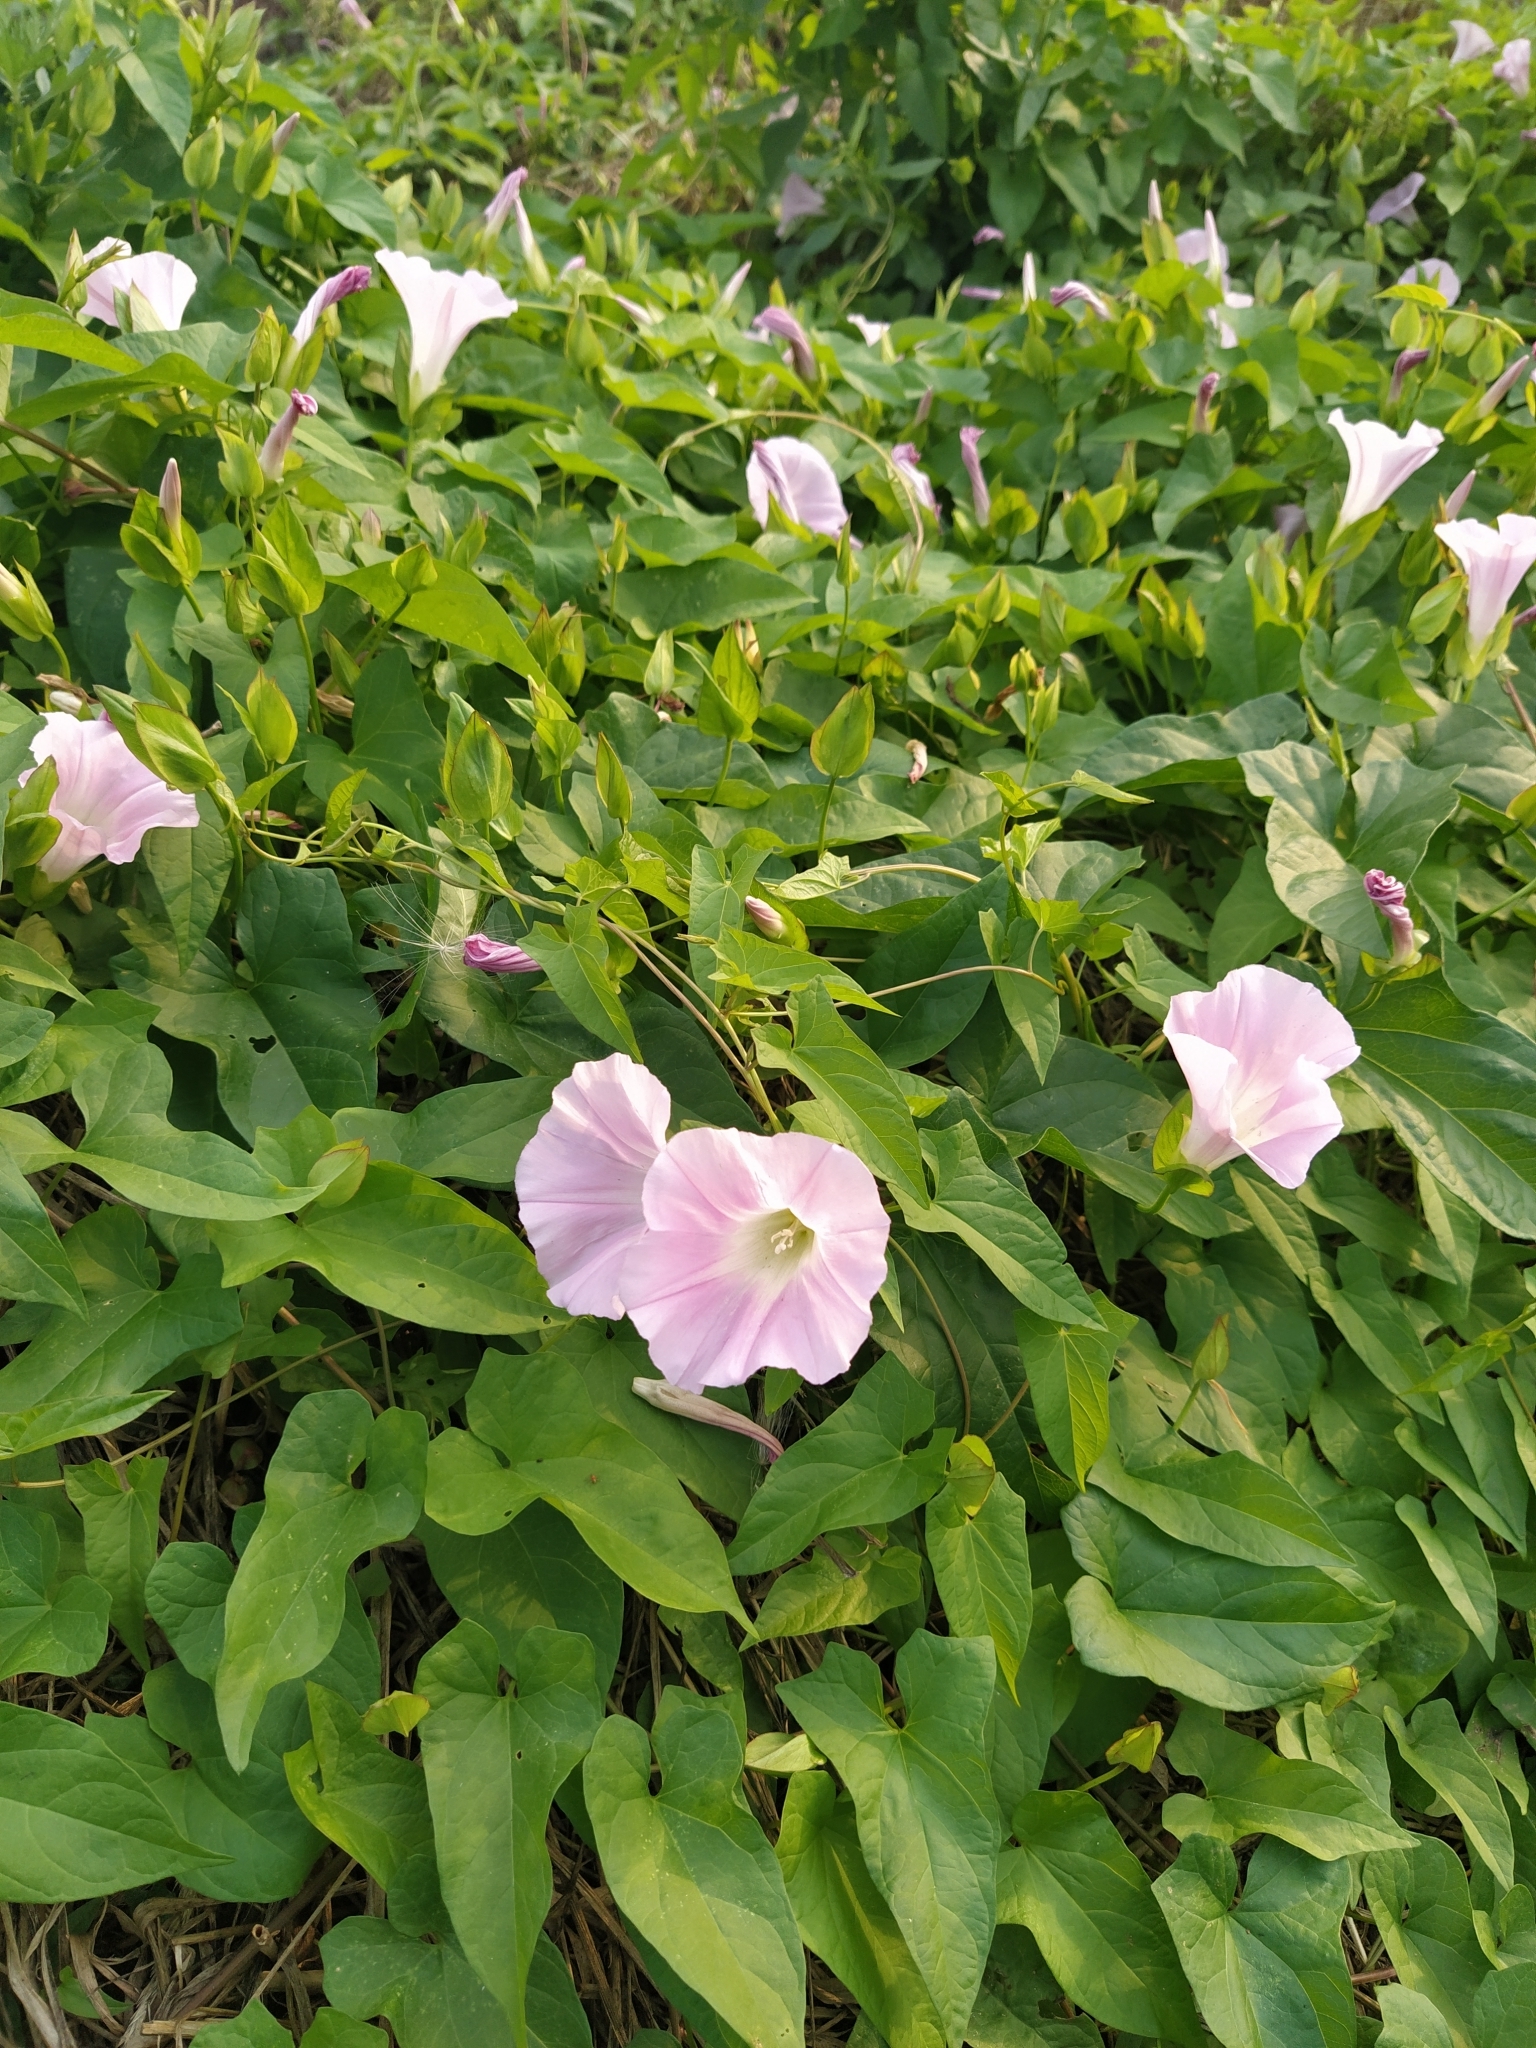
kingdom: Plantae
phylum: Tracheophyta
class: Magnoliopsida
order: Solanales
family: Convolvulaceae
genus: Calystegia
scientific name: Calystegia sepium
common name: Hedge bindweed
